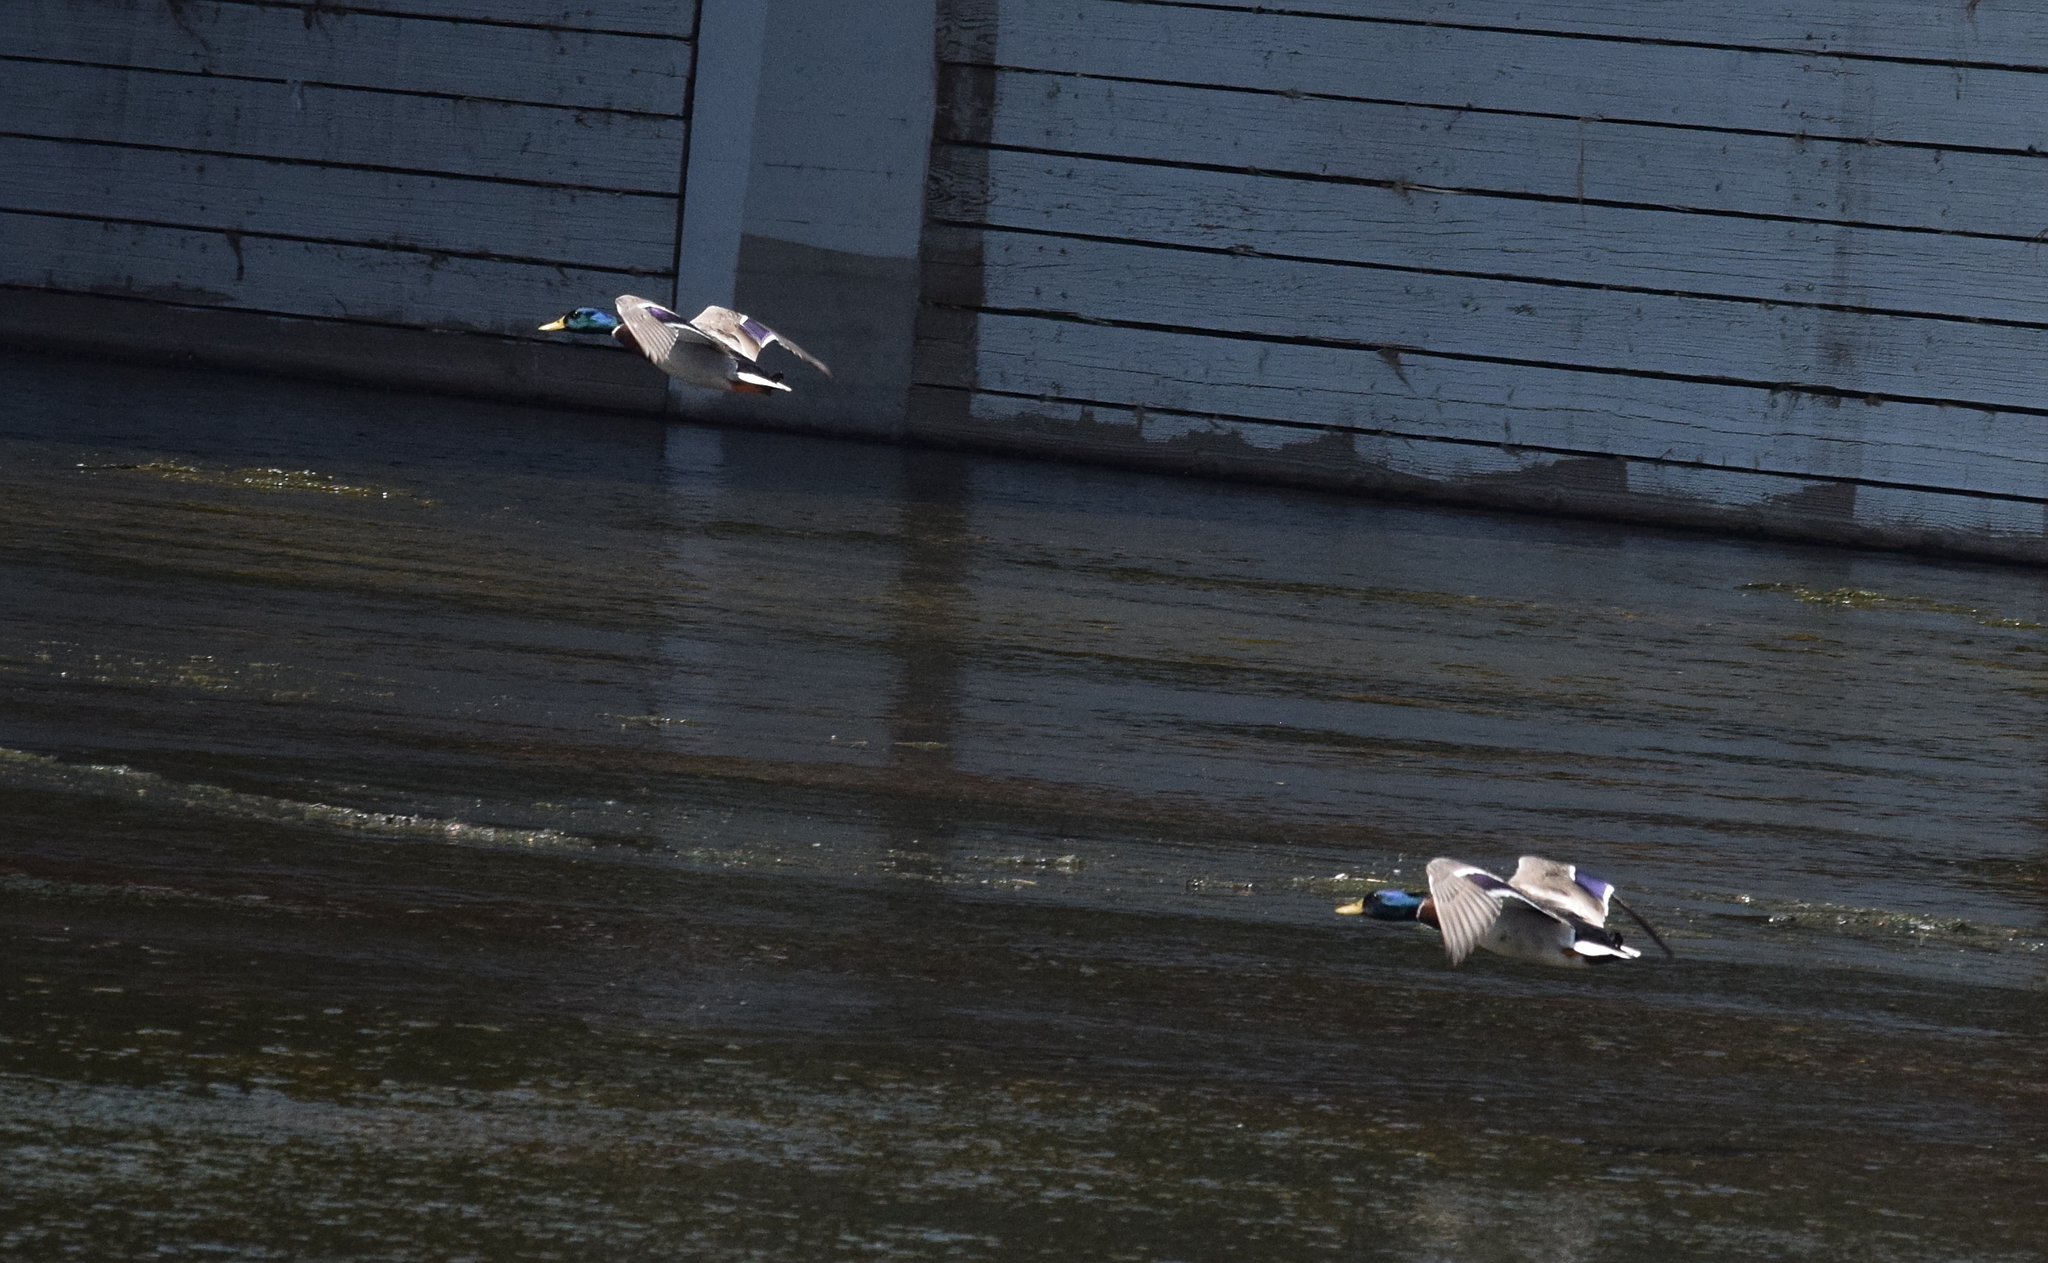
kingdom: Animalia
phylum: Chordata
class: Aves
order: Anseriformes
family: Anatidae
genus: Anas
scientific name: Anas platyrhynchos
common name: Mallard
